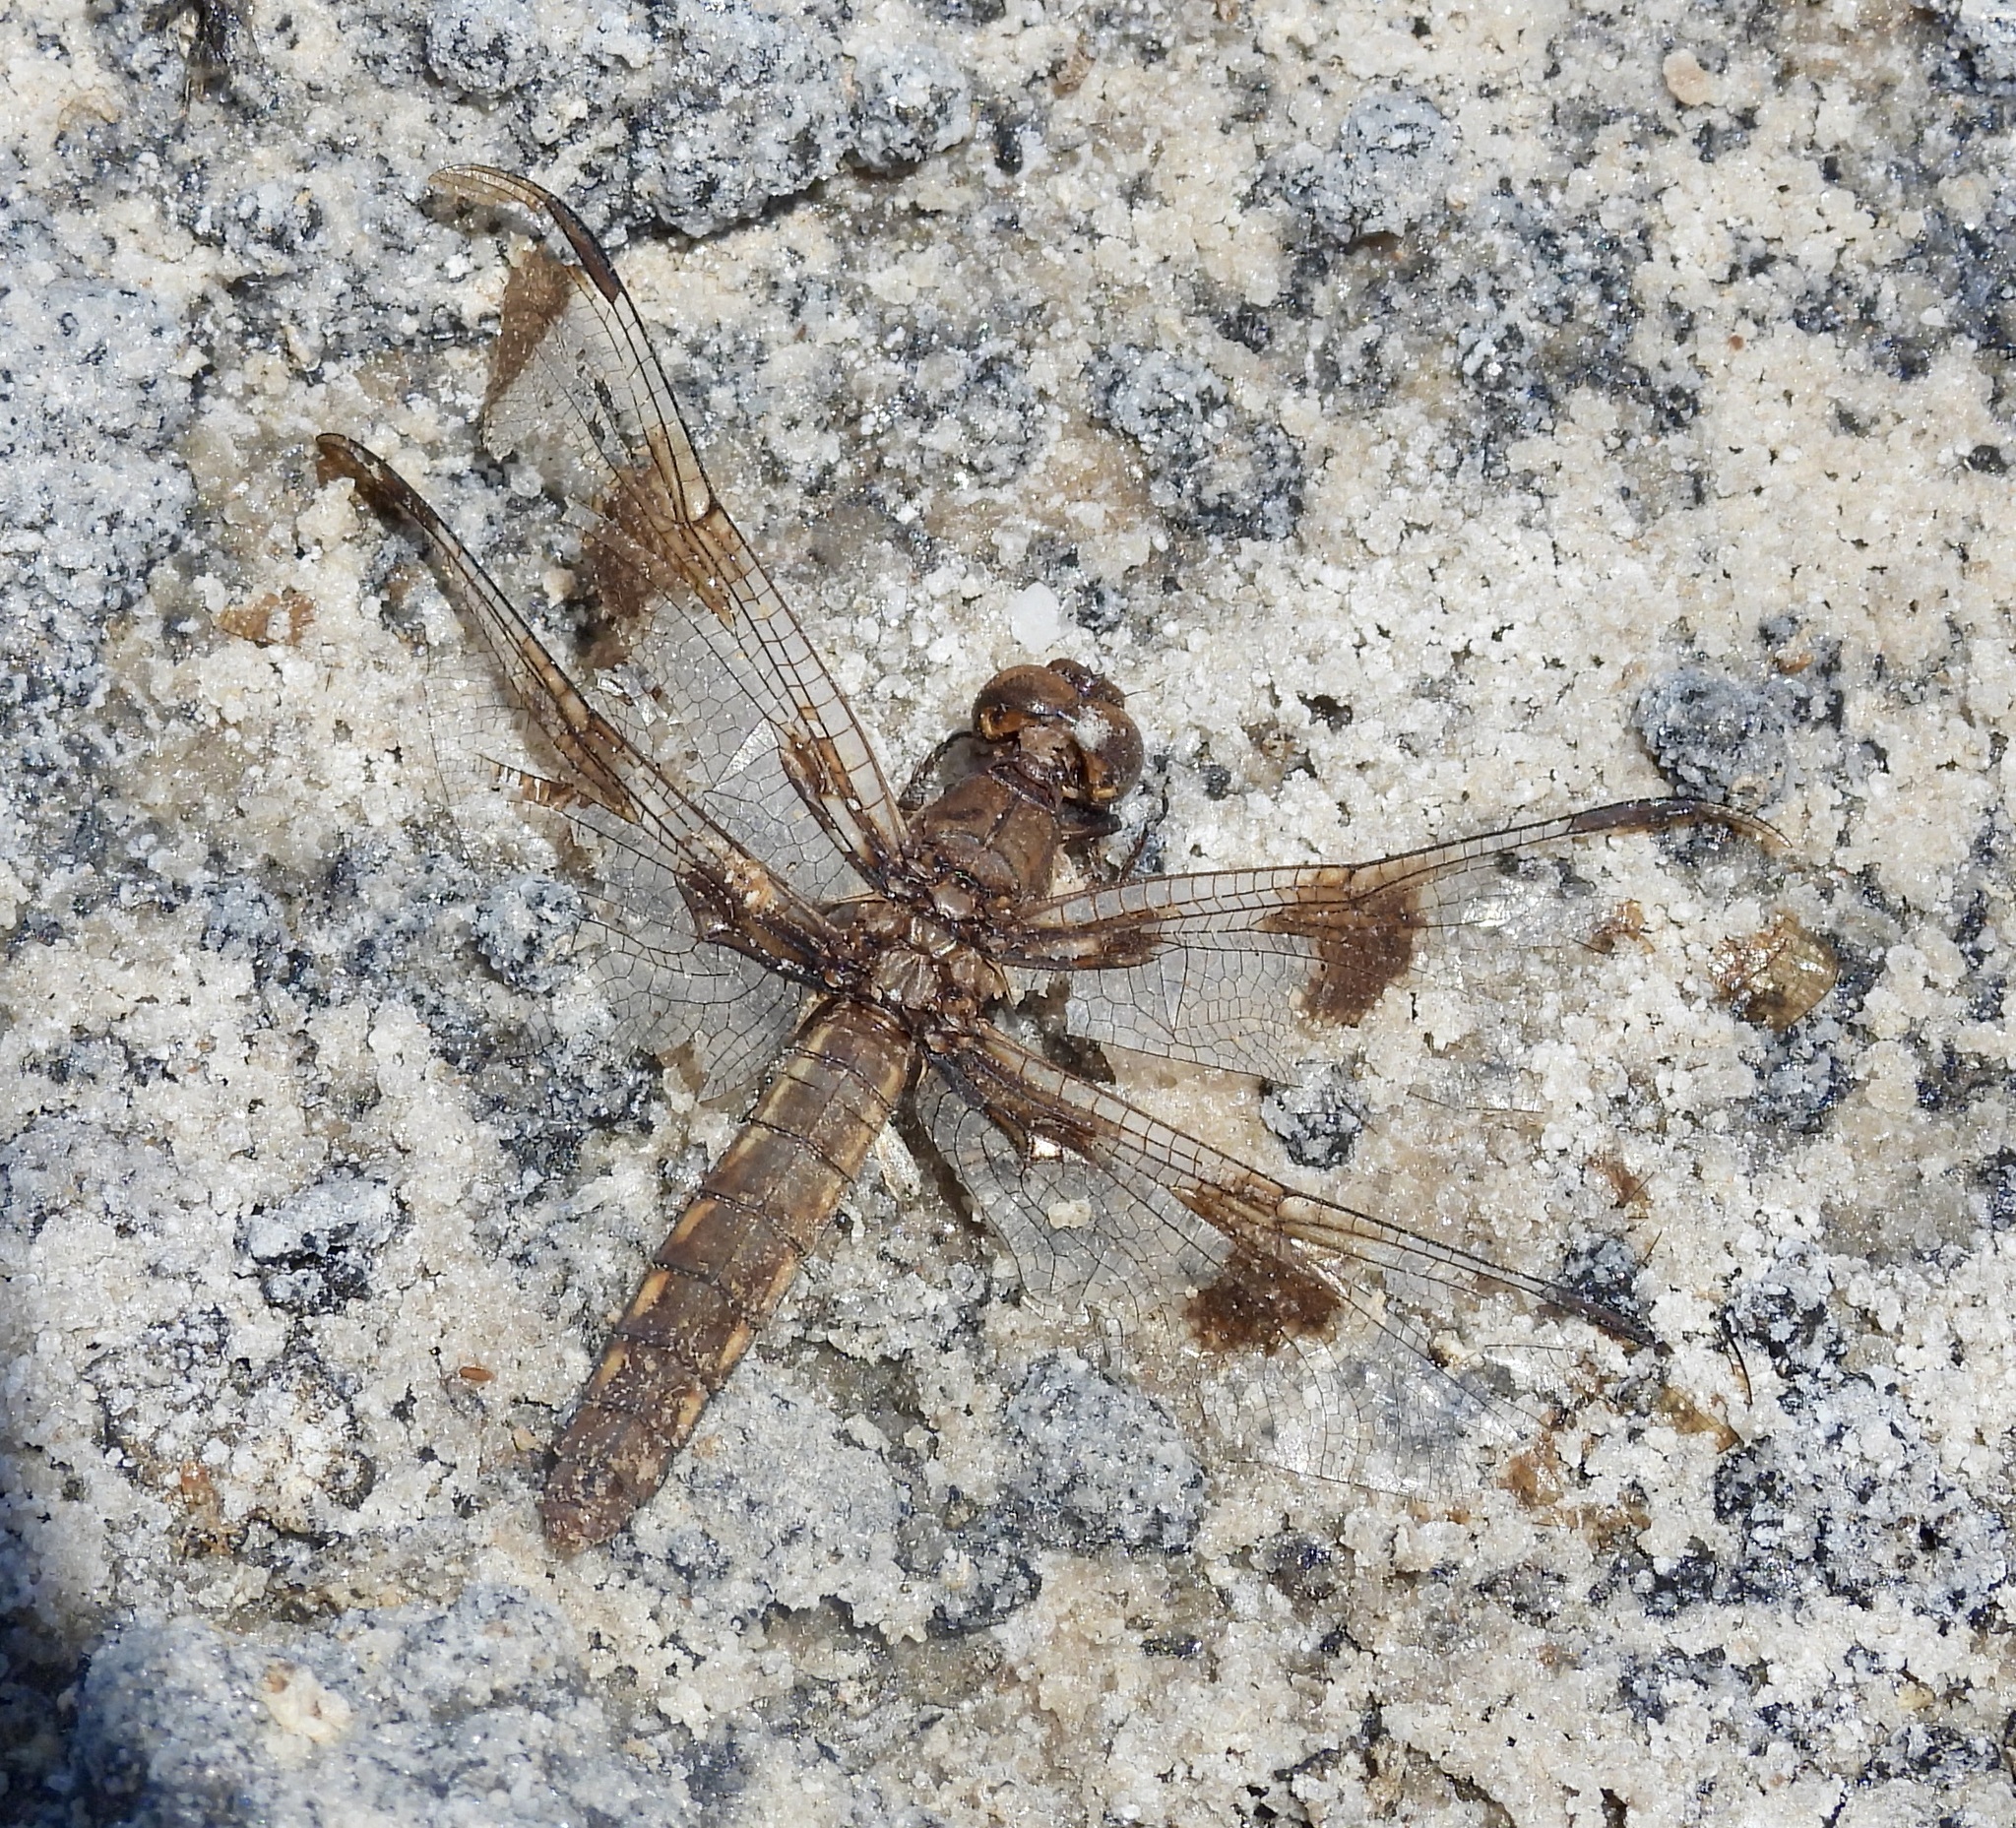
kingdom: Animalia
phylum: Arthropoda
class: Insecta
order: Odonata
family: Libellulidae
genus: Plathemis
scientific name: Plathemis lydia
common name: Common whitetail
